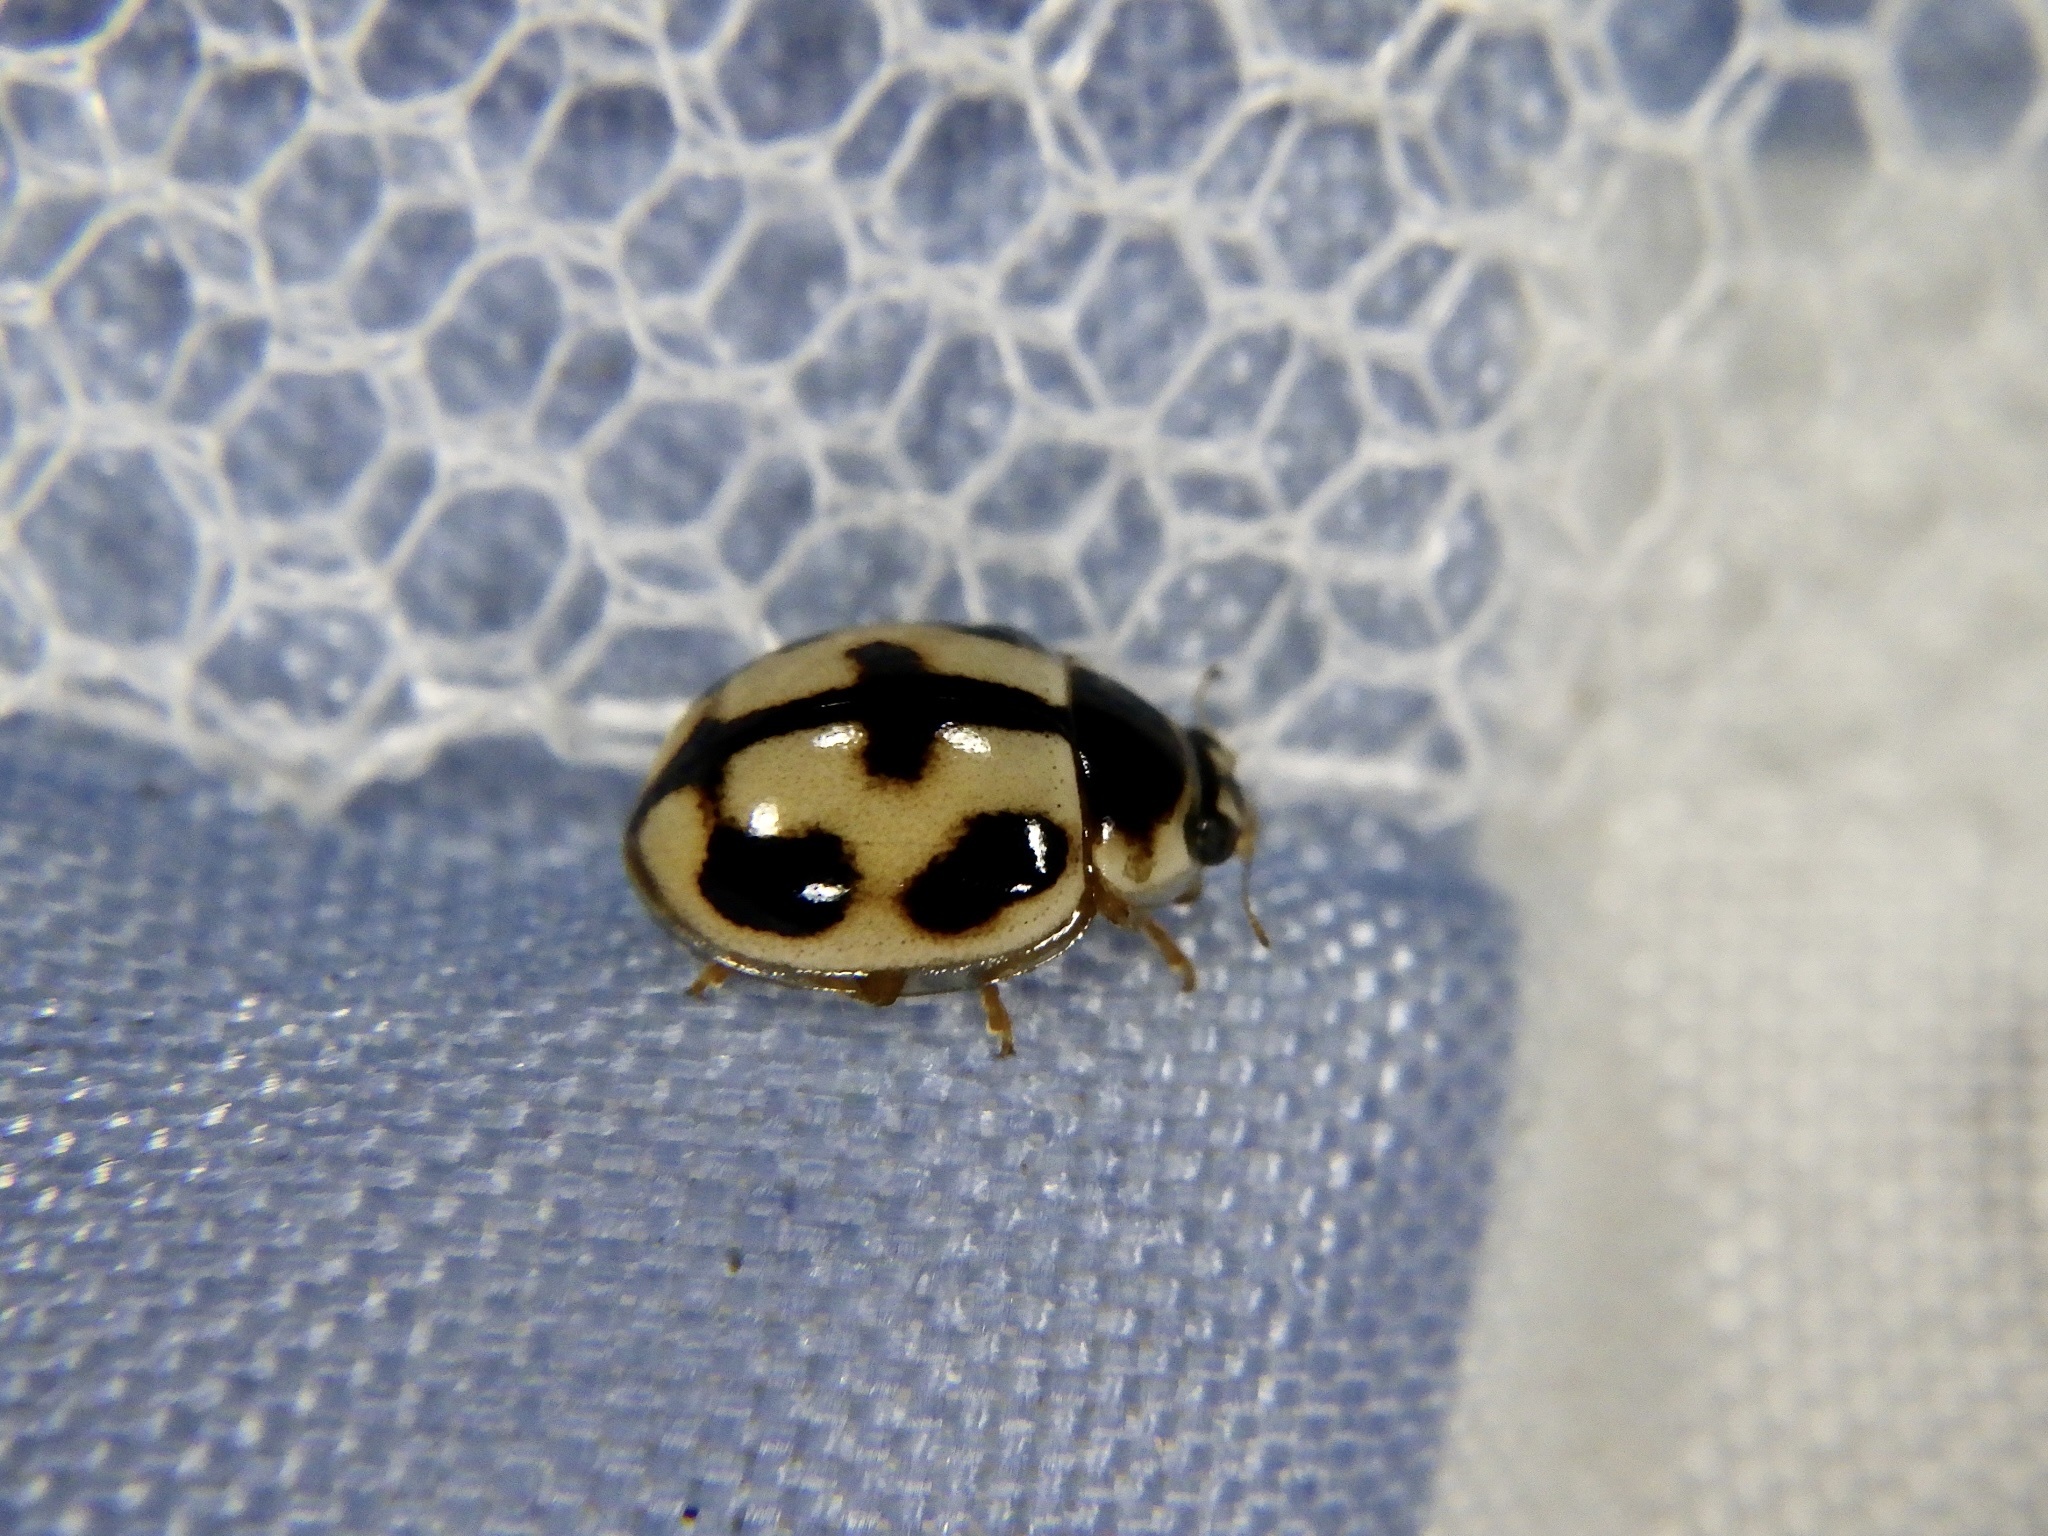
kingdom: Animalia
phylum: Arthropoda
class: Insecta
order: Coleoptera
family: Coccinellidae
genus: Propylea
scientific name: Propylea japonica
